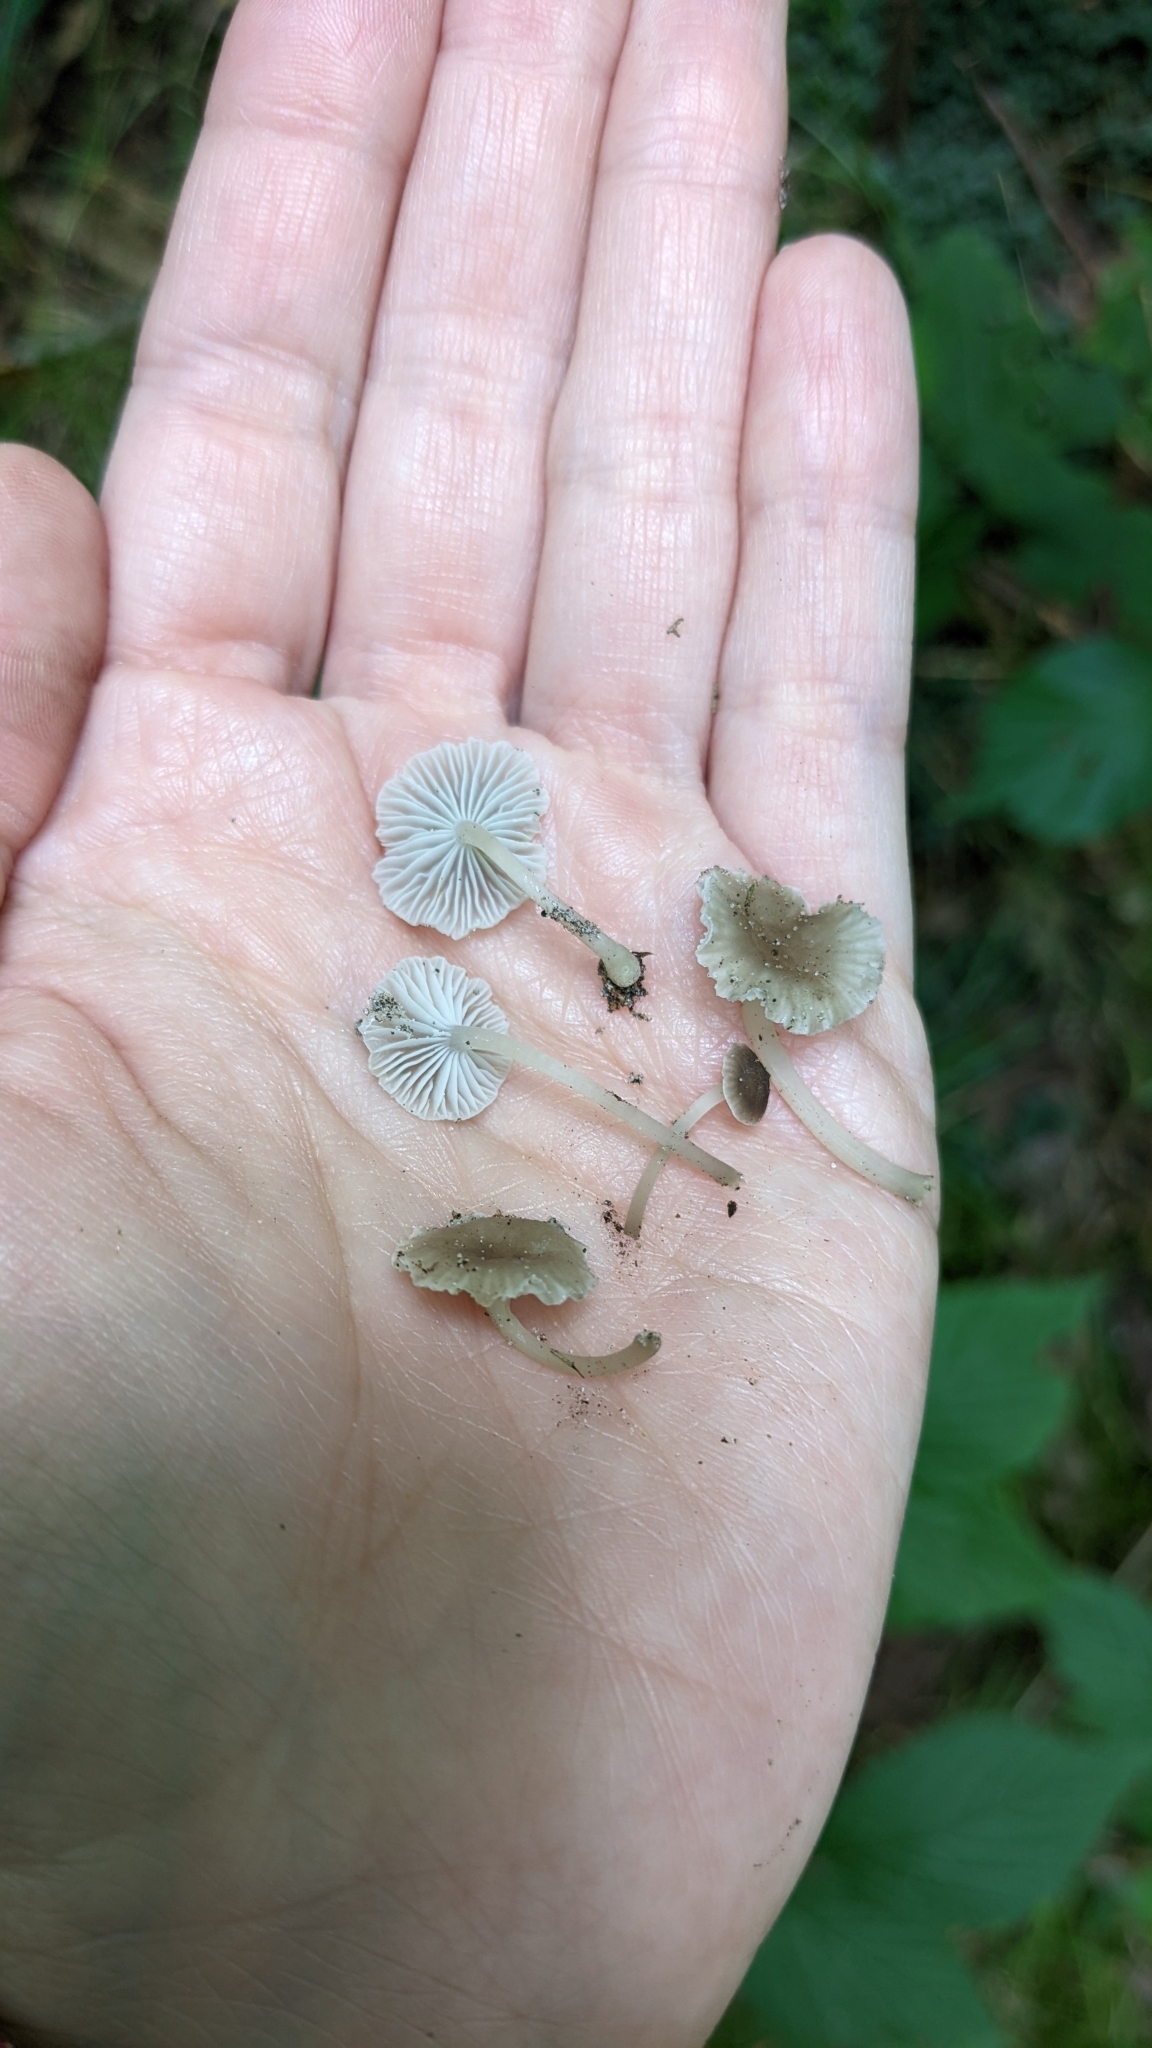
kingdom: Fungi
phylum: Basidiomycota
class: Agaricomycetes
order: Agaricales
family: Mycenaceae
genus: Hydropus
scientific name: Hydropus praedecurrens
